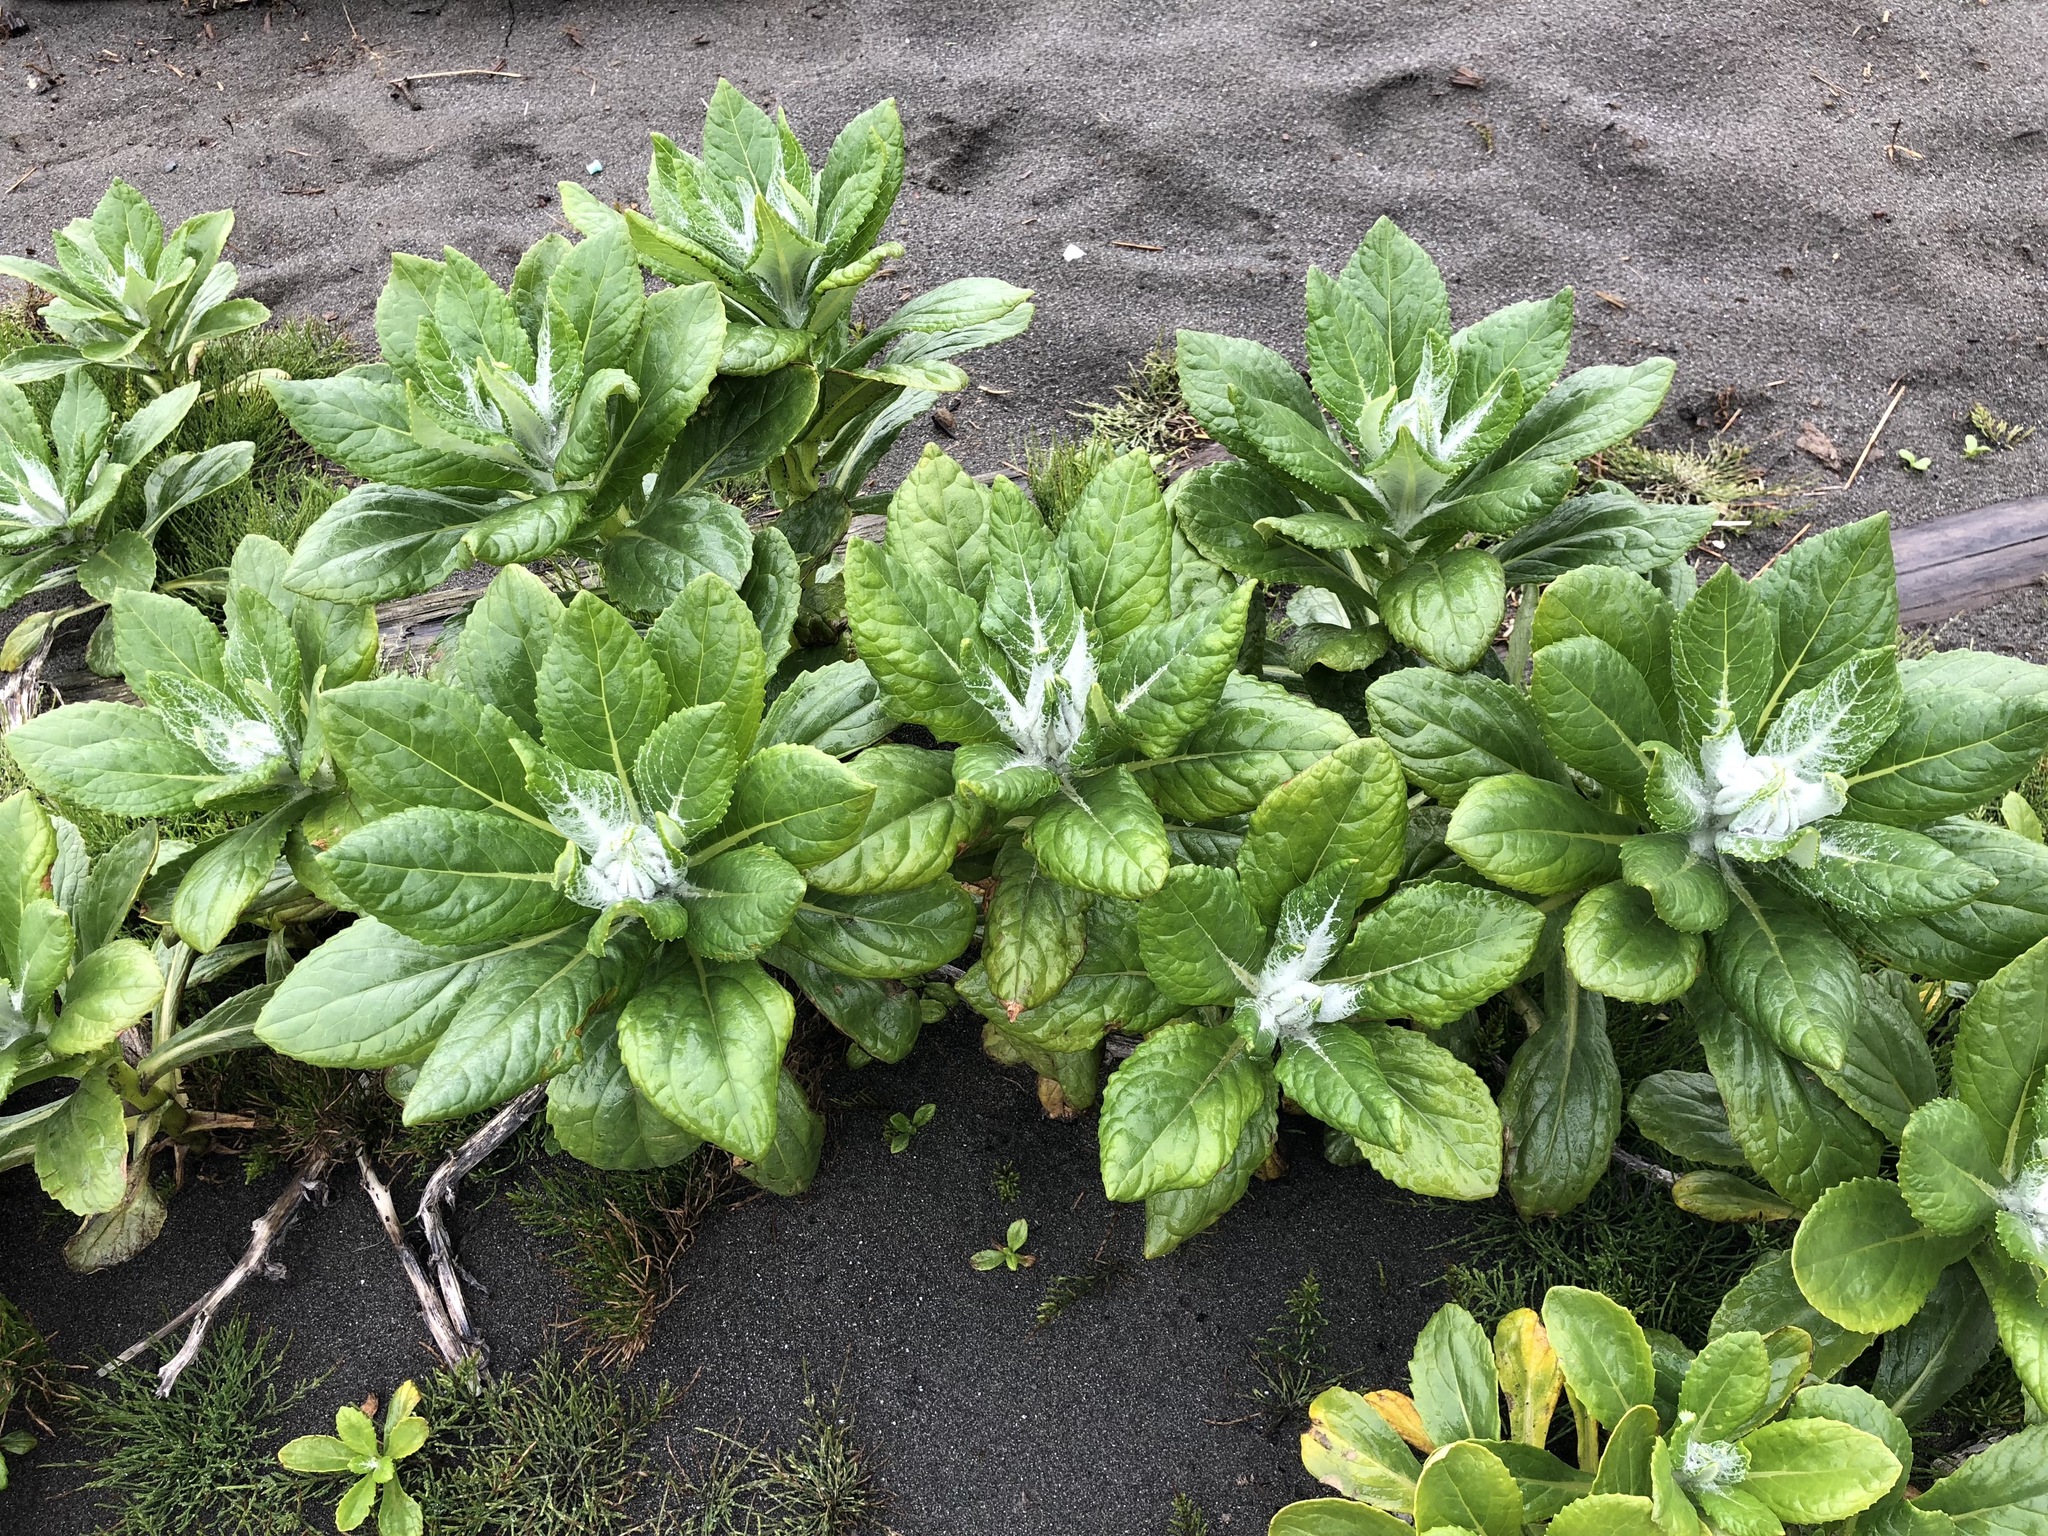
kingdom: Plantae
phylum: Tracheophyta
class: Magnoliopsida
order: Asterales
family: Asteraceae
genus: Jacobaea
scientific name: Jacobaea pseudoarnica
